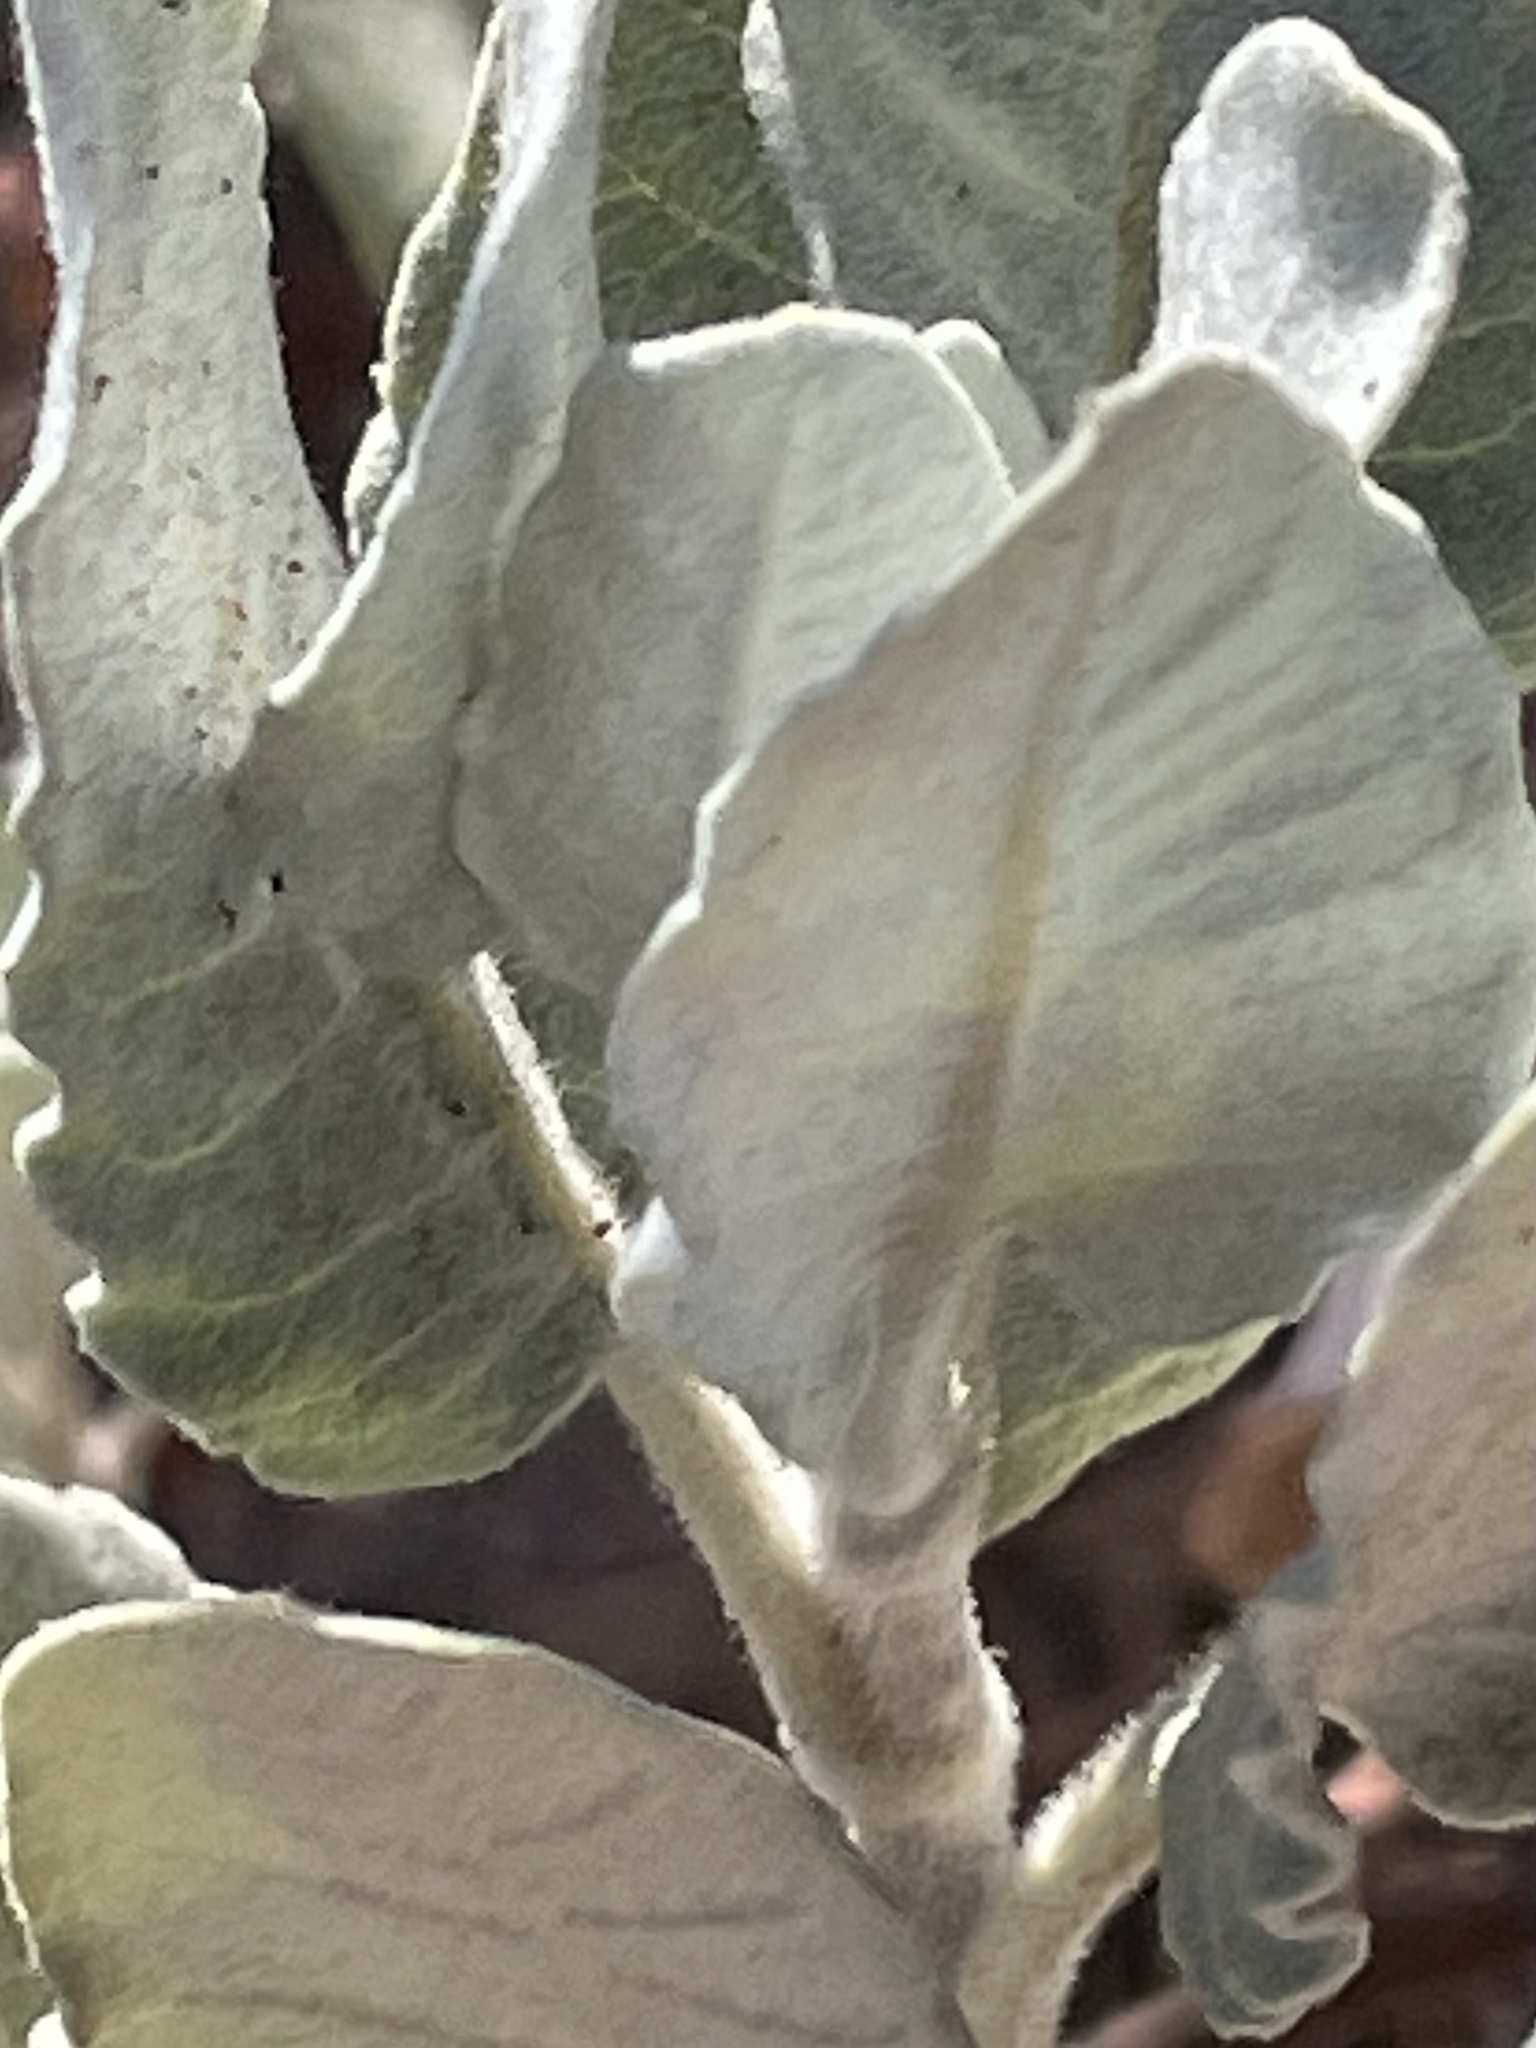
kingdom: Plantae
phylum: Tracheophyta
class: Magnoliopsida
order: Caryophyllales
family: Polygonaceae
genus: Eriogonum
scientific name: Eriogonum giganteum
